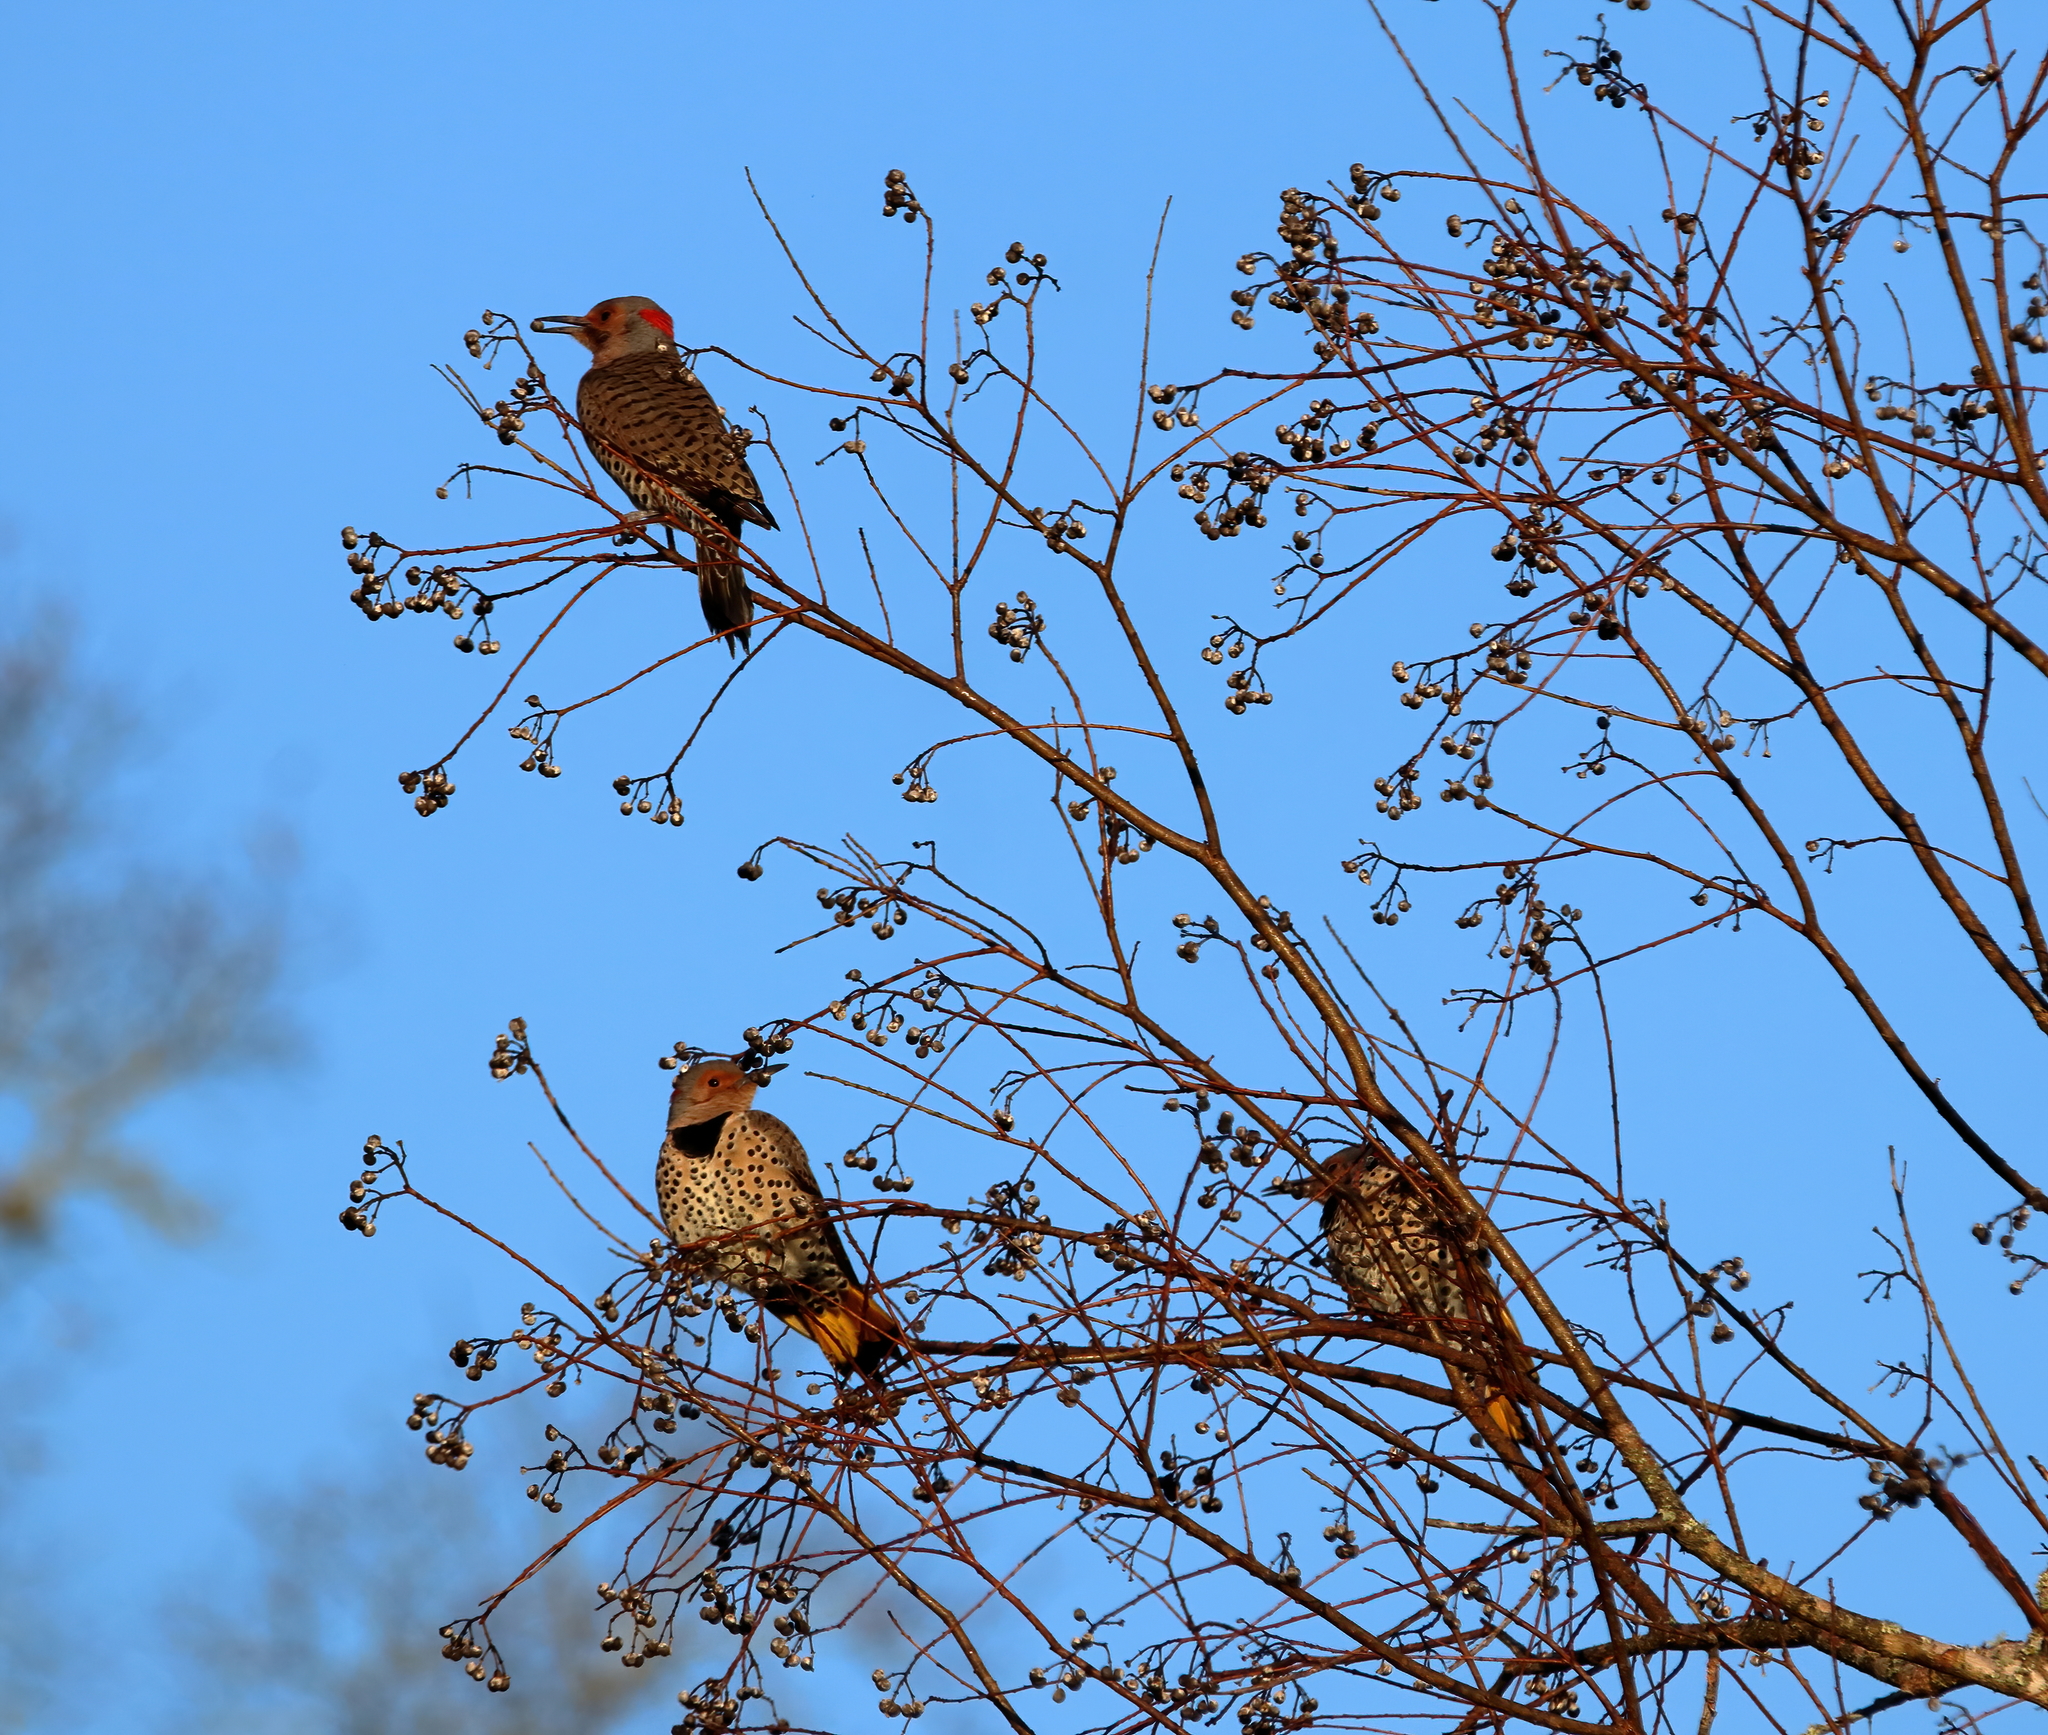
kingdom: Animalia
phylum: Chordata
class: Aves
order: Piciformes
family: Picidae
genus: Colaptes
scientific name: Colaptes auratus
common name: Northern flicker
